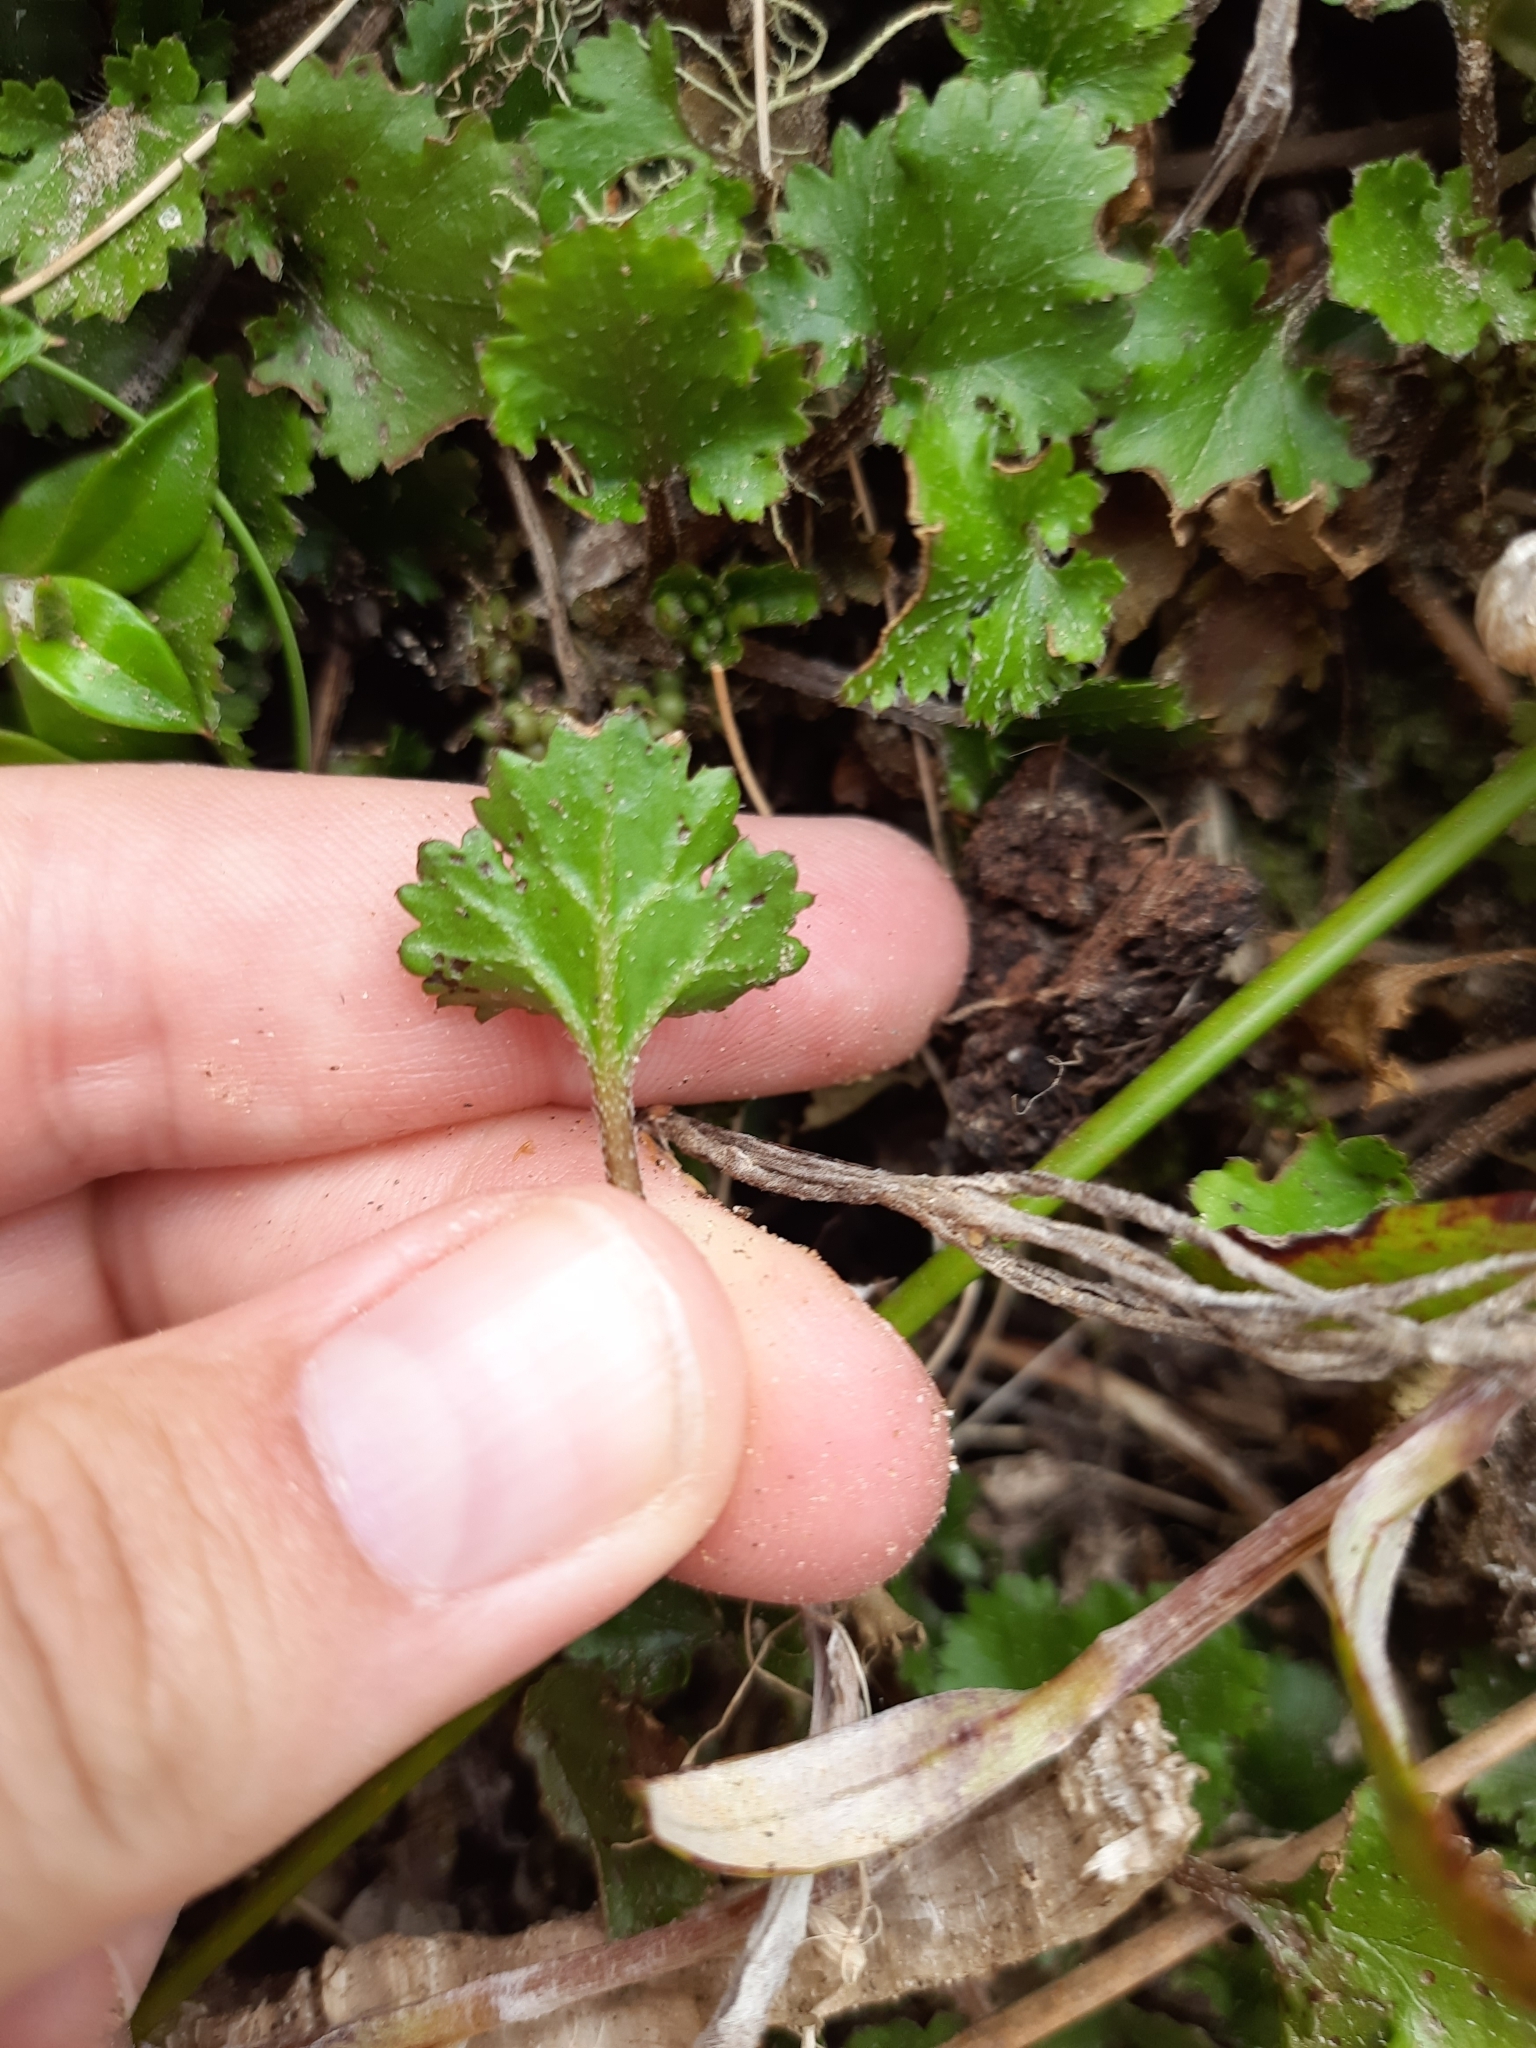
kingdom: Plantae
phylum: Tracheophyta
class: Magnoliopsida
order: Gunnerales
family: Gunneraceae
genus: Gunnera
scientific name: Gunnera monoica
